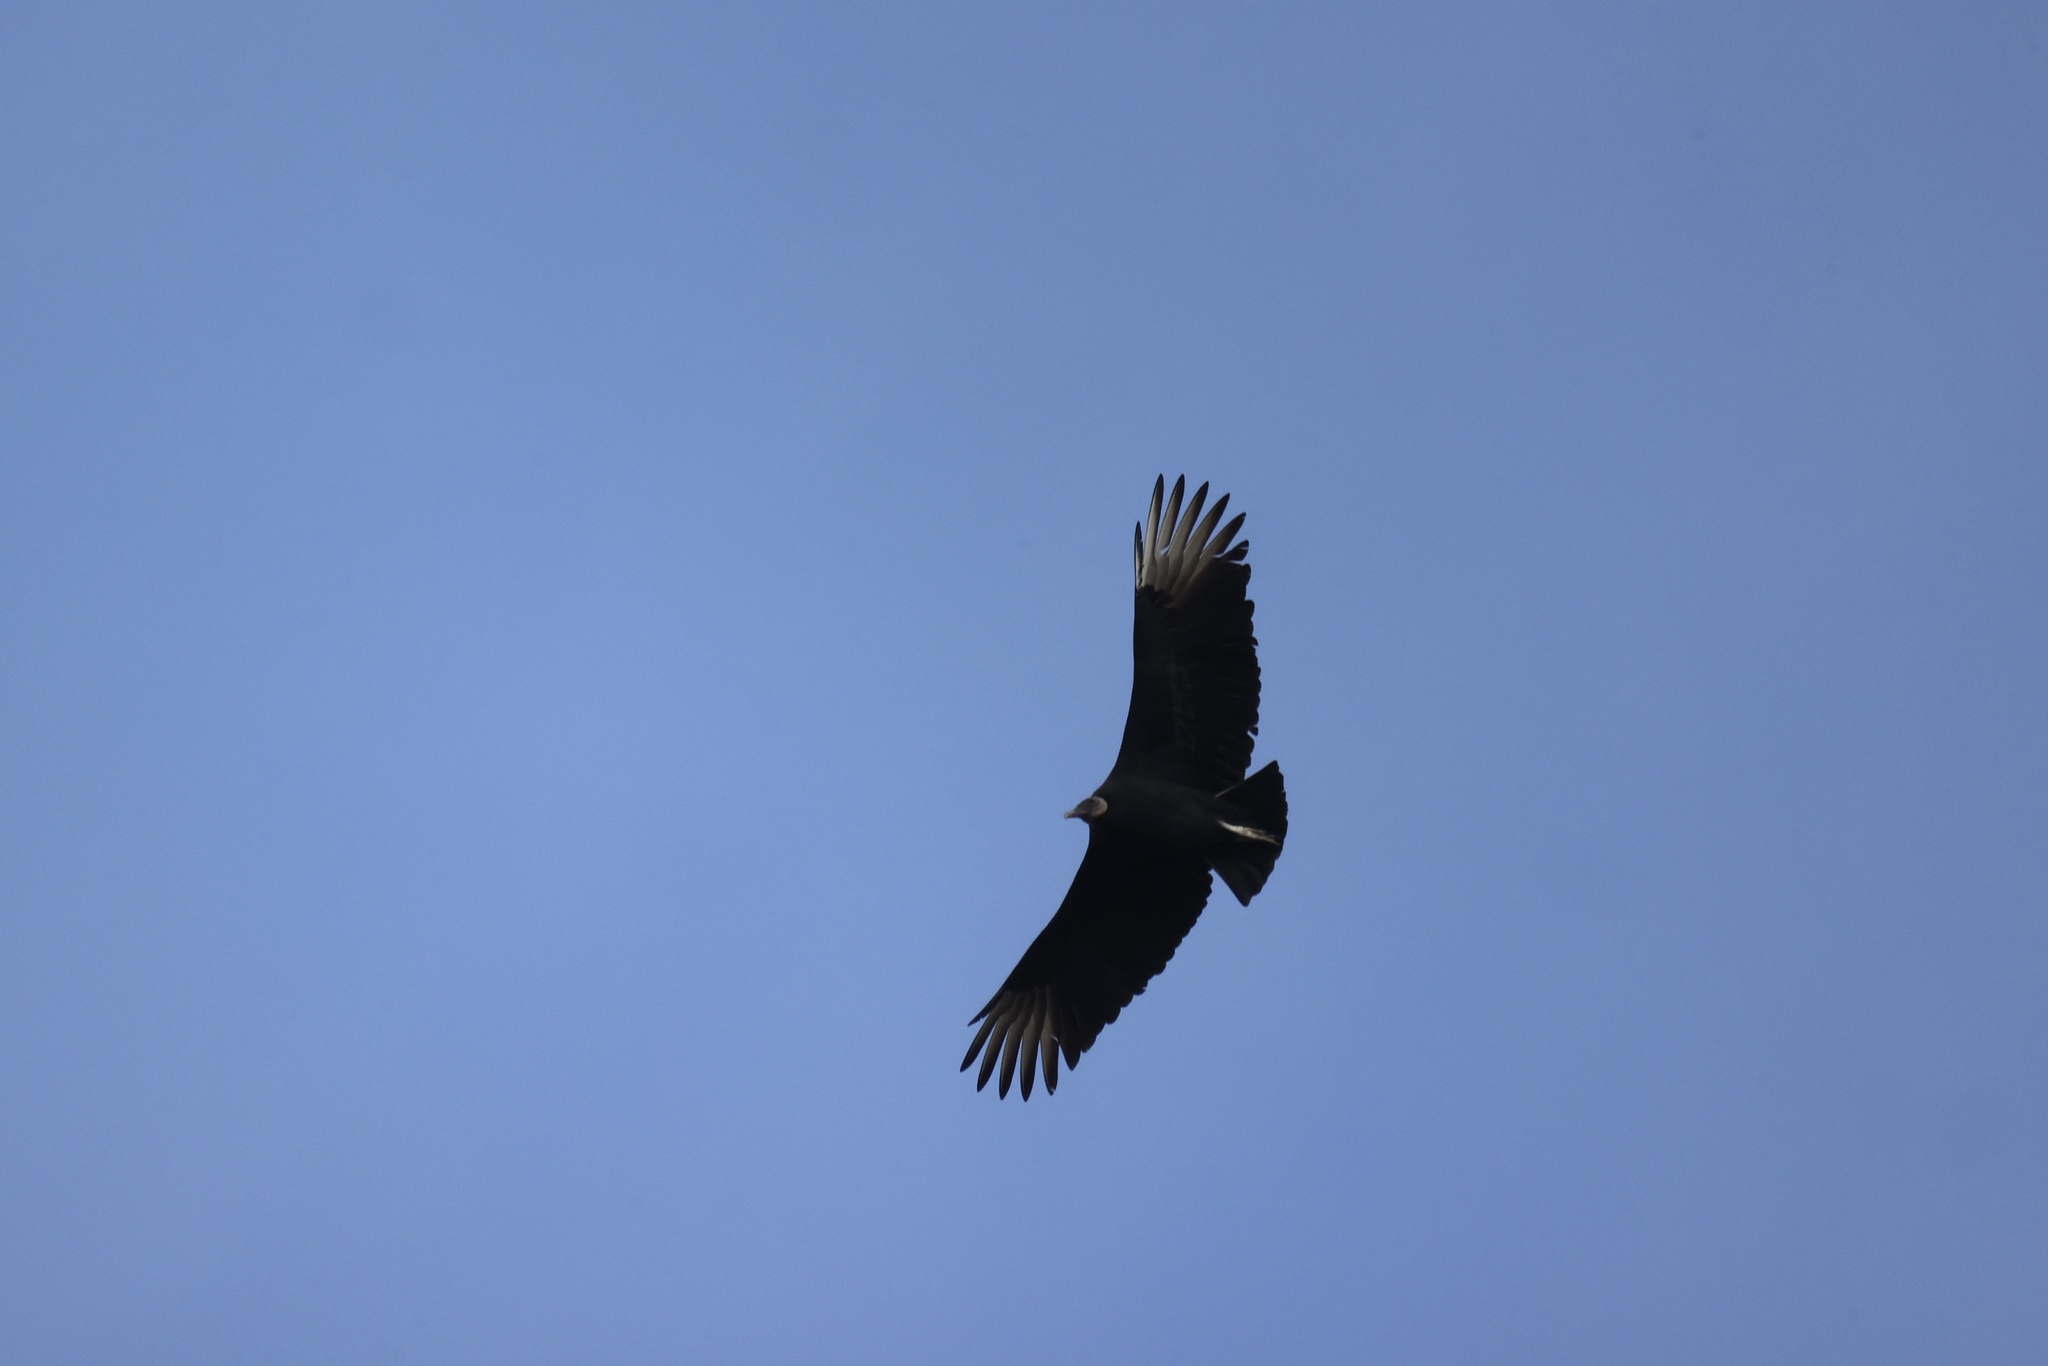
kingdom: Animalia
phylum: Chordata
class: Aves
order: Accipitriformes
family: Cathartidae
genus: Coragyps
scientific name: Coragyps atratus
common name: Black vulture
